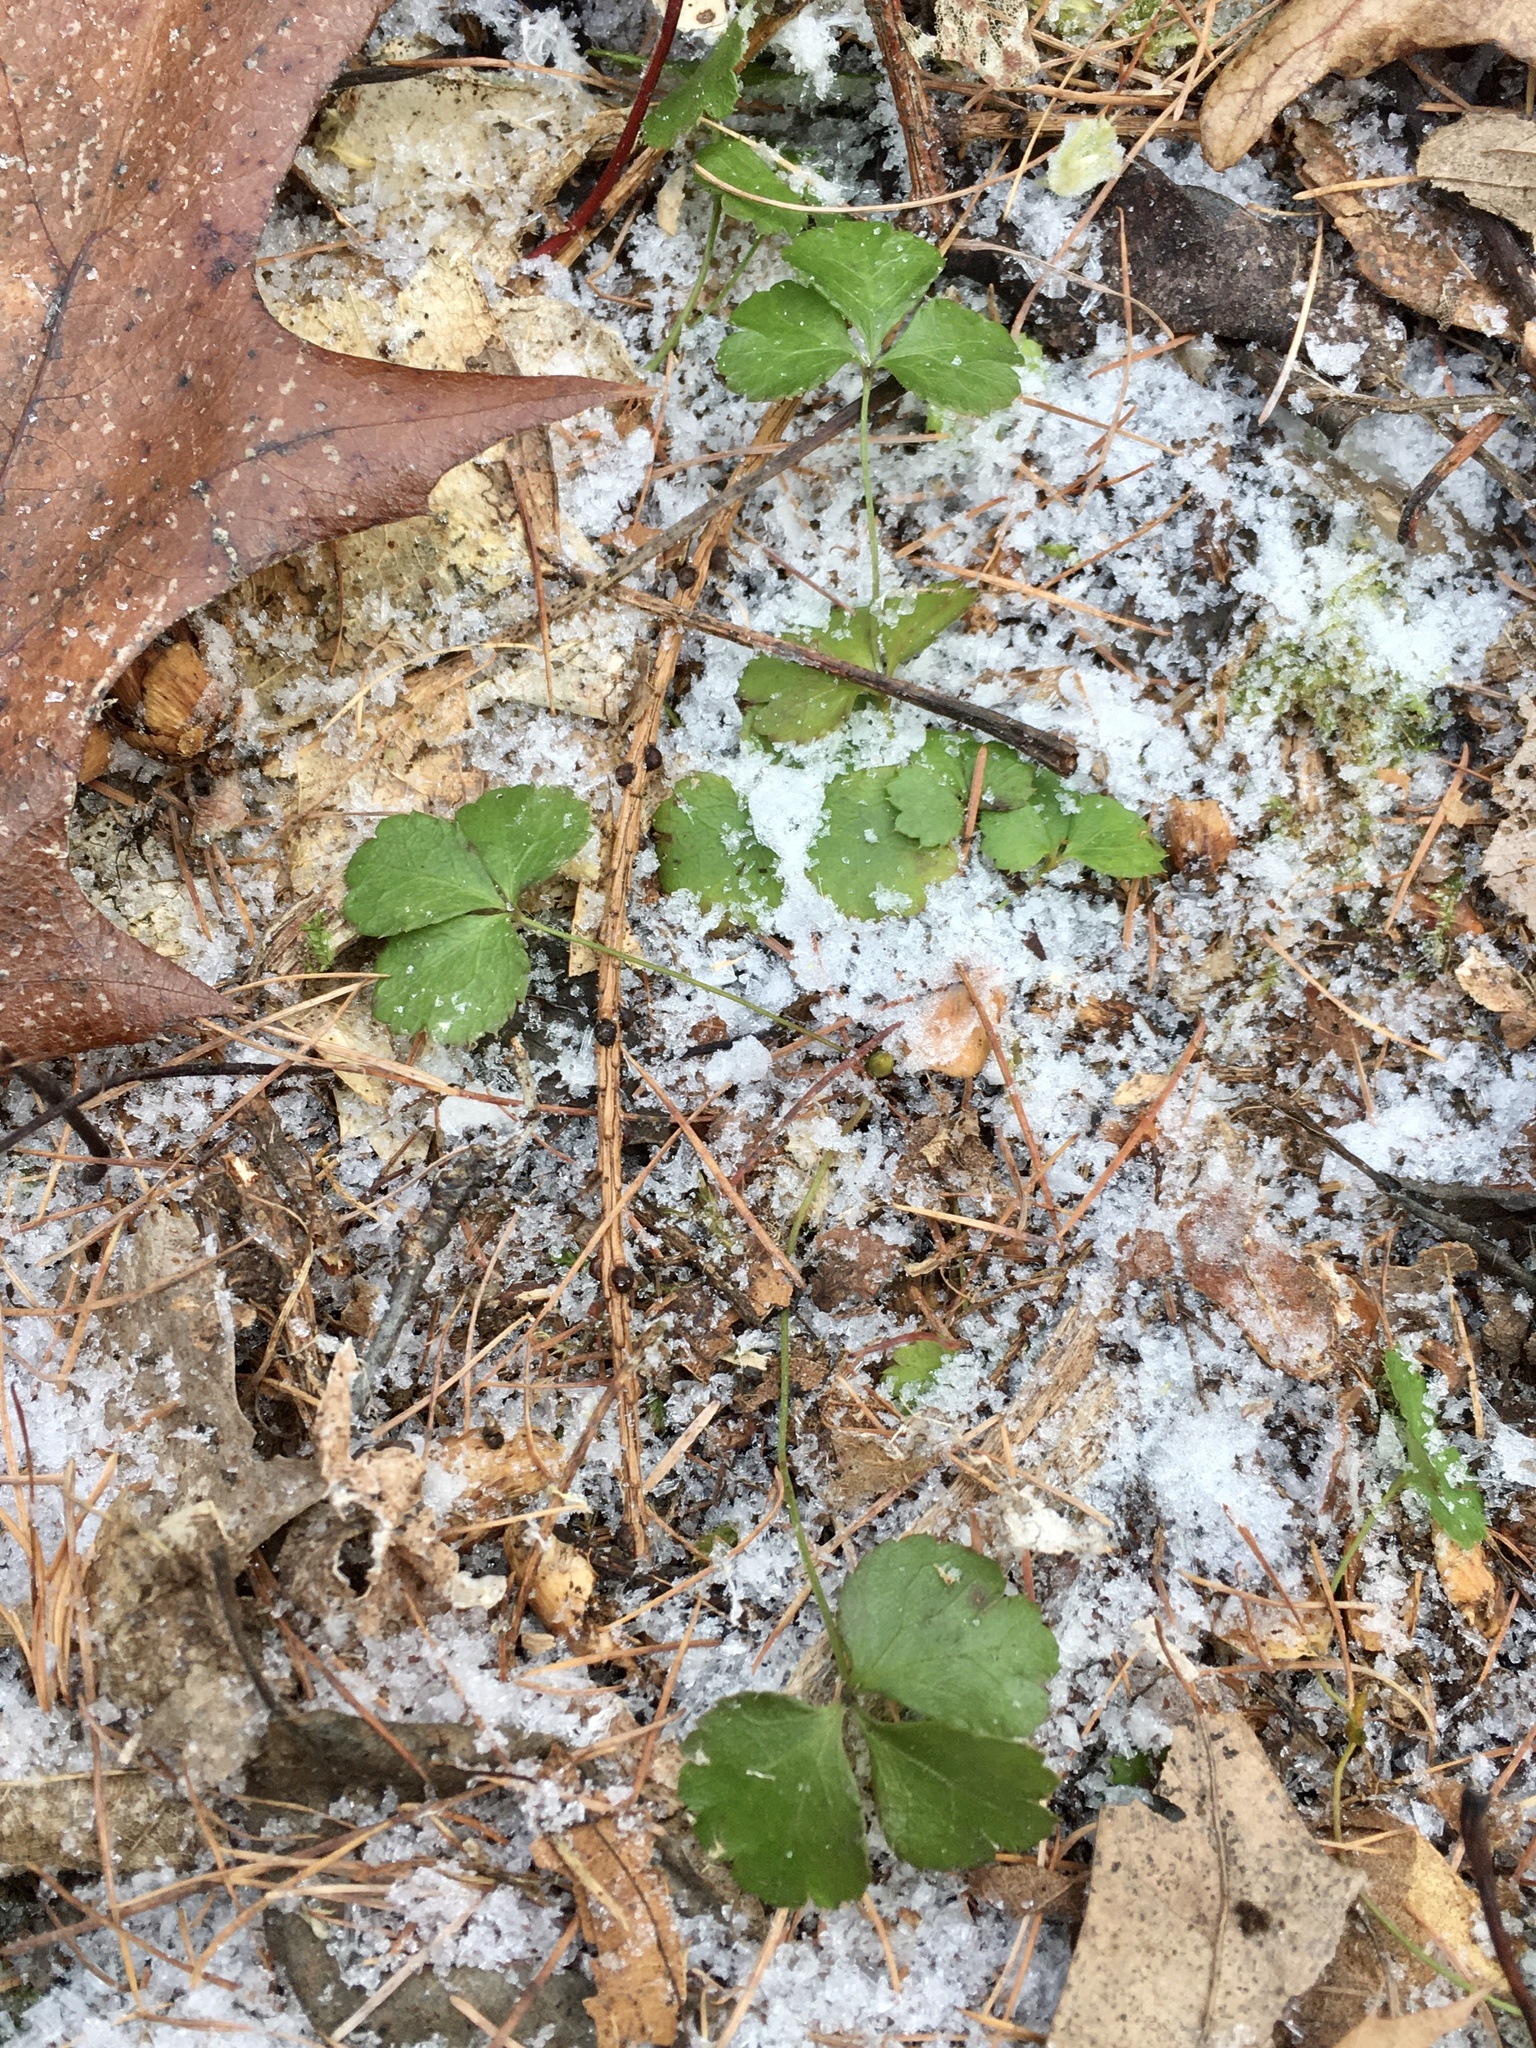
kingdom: Plantae
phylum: Tracheophyta
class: Magnoliopsida
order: Ranunculales
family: Ranunculaceae
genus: Coptis
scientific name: Coptis trifolia
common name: Canker-root
